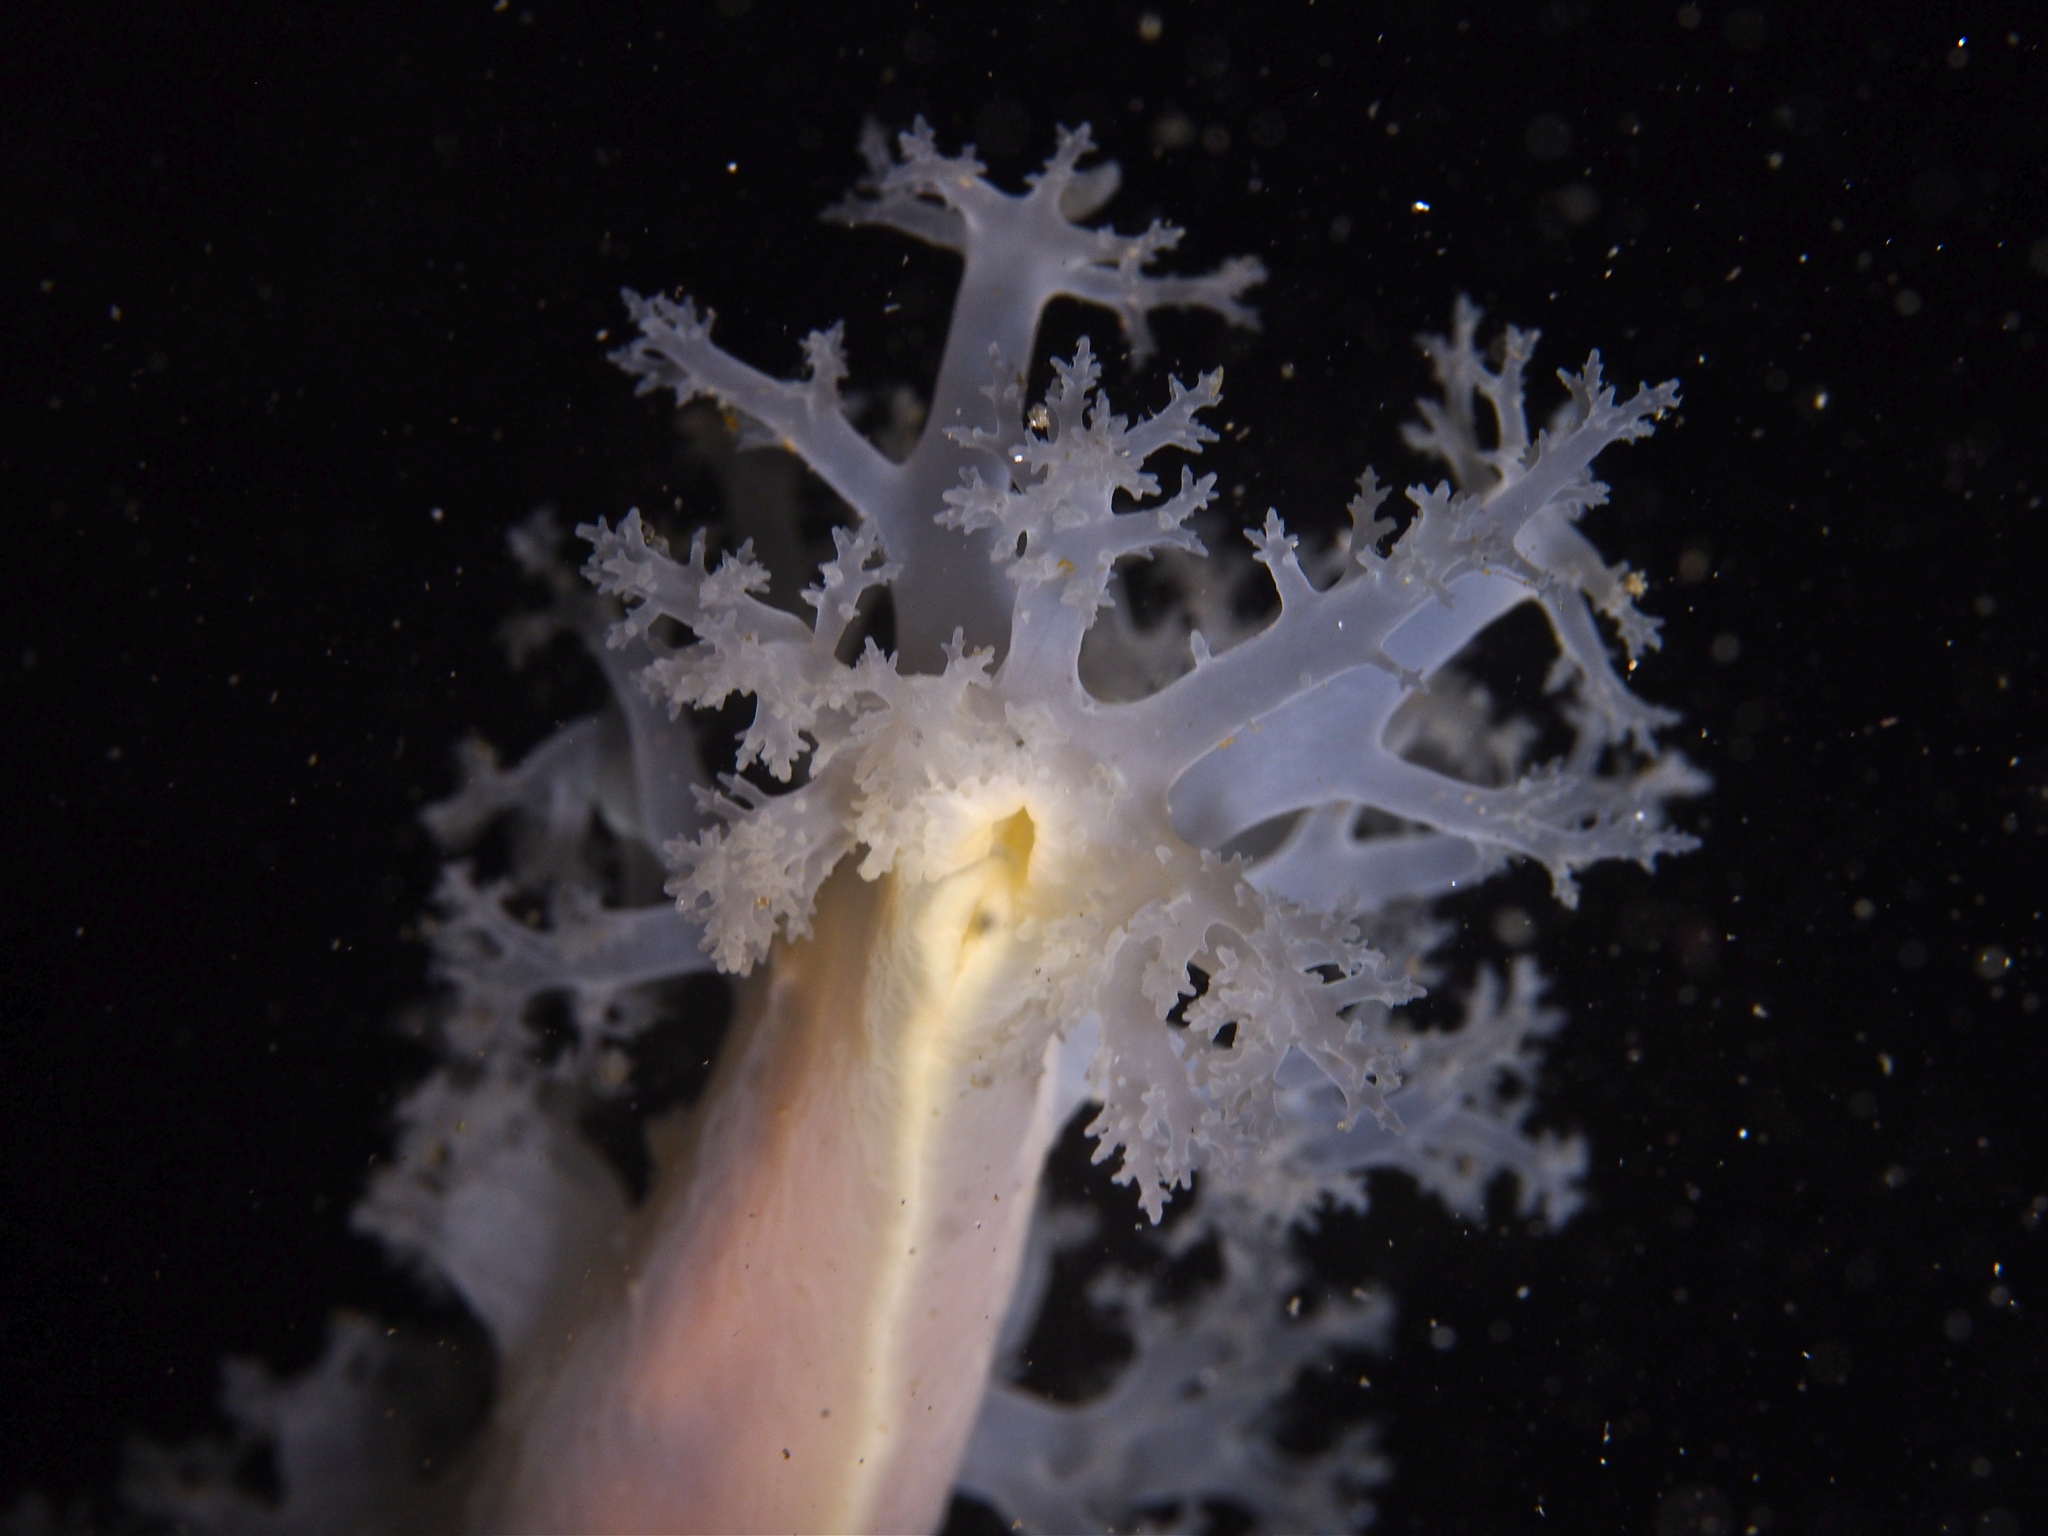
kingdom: Animalia
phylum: Mollusca
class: Gastropoda
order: Nudibranchia
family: Dendronotidae
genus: Dendronotus
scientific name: Dendronotus lacteus
